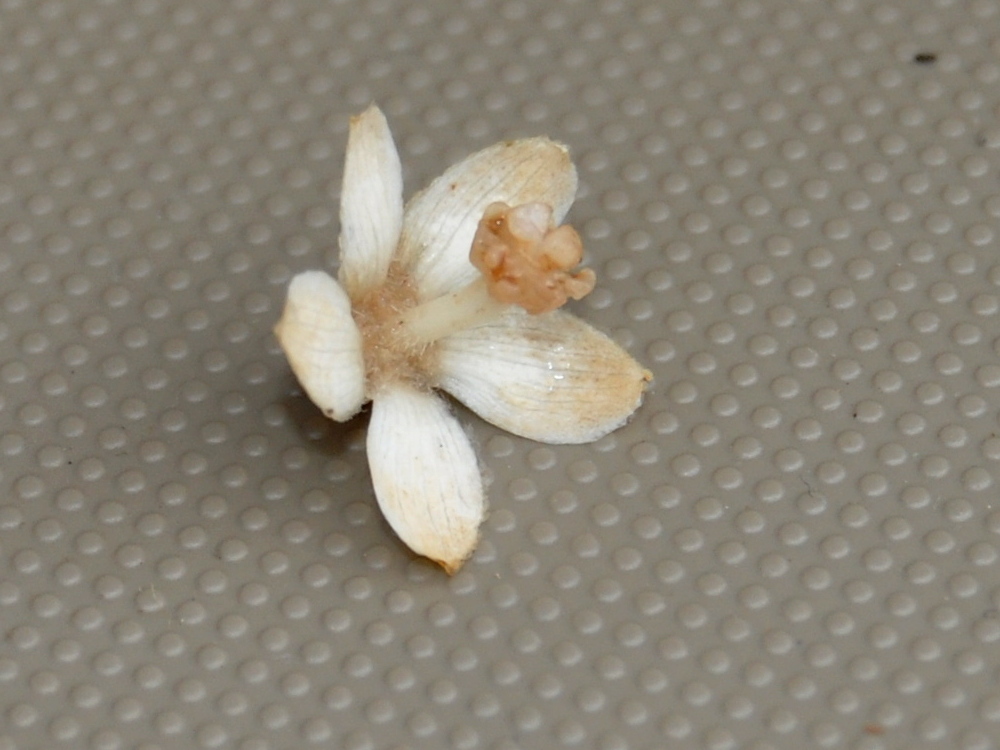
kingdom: Plantae
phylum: Tracheophyta
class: Magnoliopsida
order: Malvales
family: Malvaceae
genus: Camptostemon
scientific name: Camptostemon philippinensis
